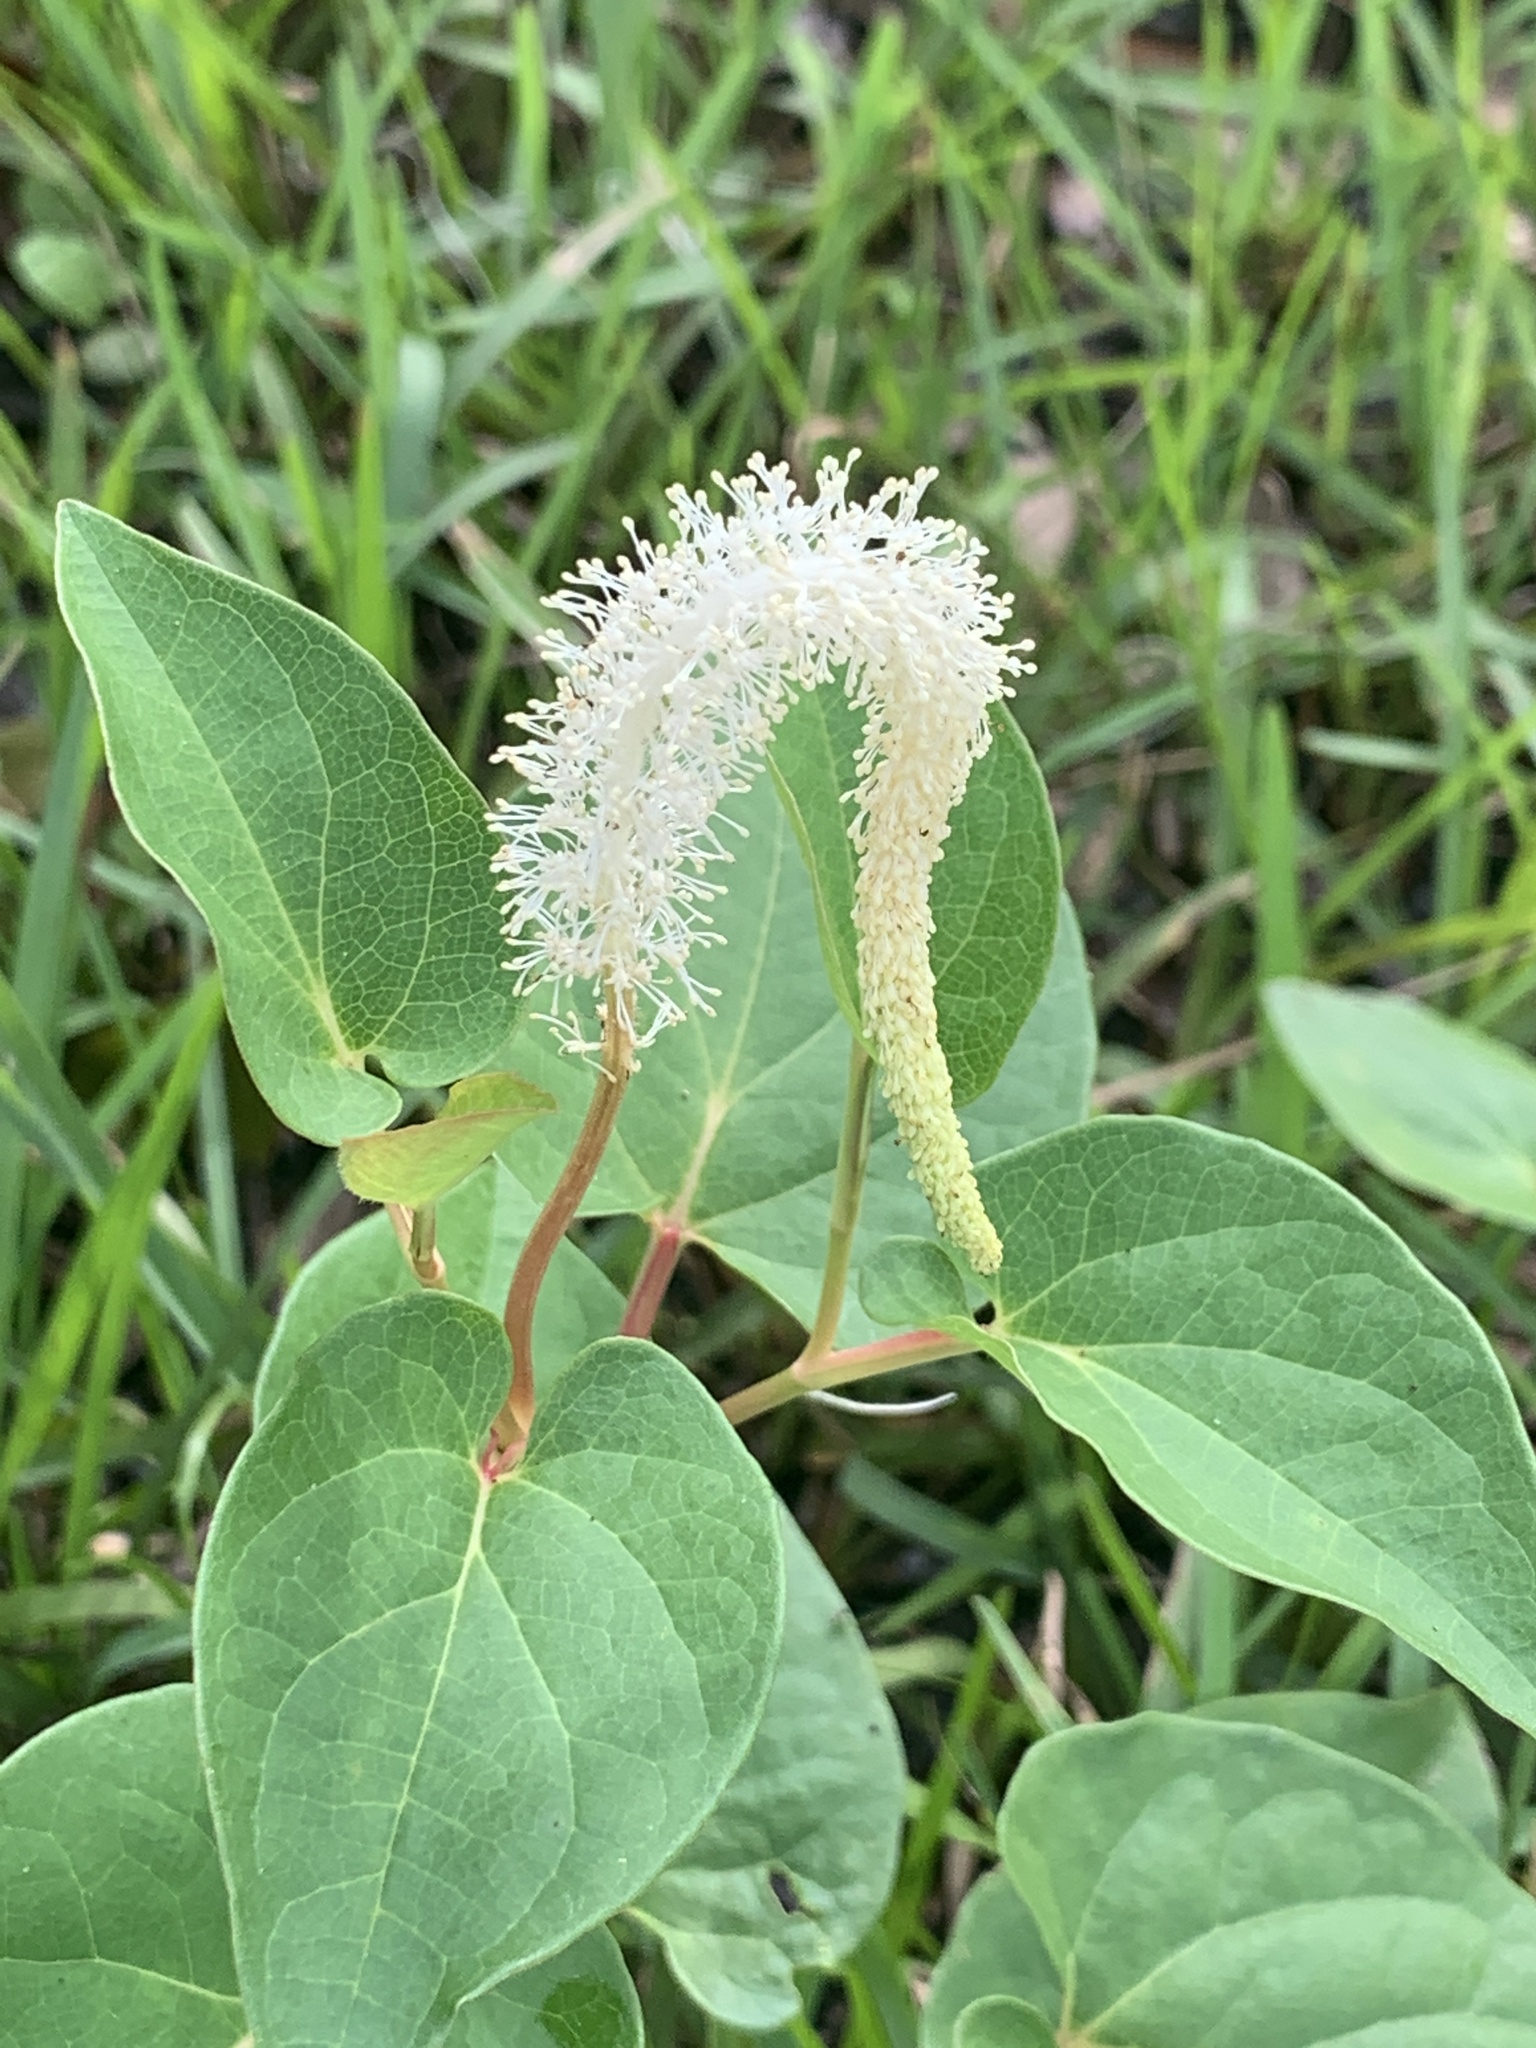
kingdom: Plantae
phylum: Tracheophyta
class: Magnoliopsida
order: Piperales
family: Saururaceae
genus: Saururus
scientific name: Saururus cernuus
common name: Lizard's-tail
